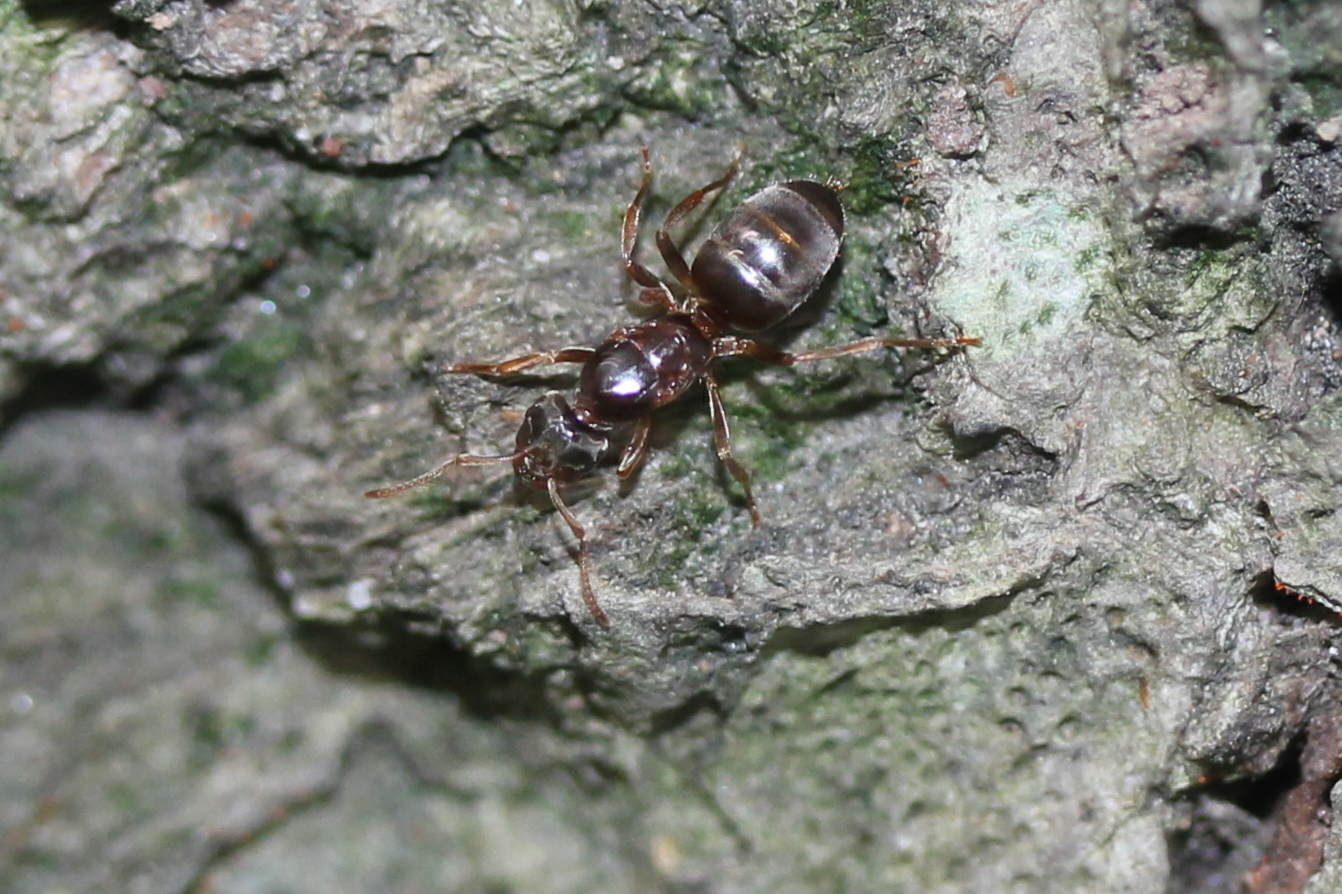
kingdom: Animalia
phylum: Arthropoda
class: Insecta
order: Hymenoptera
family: Formicidae
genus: Lasius
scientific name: Lasius aphidicola
